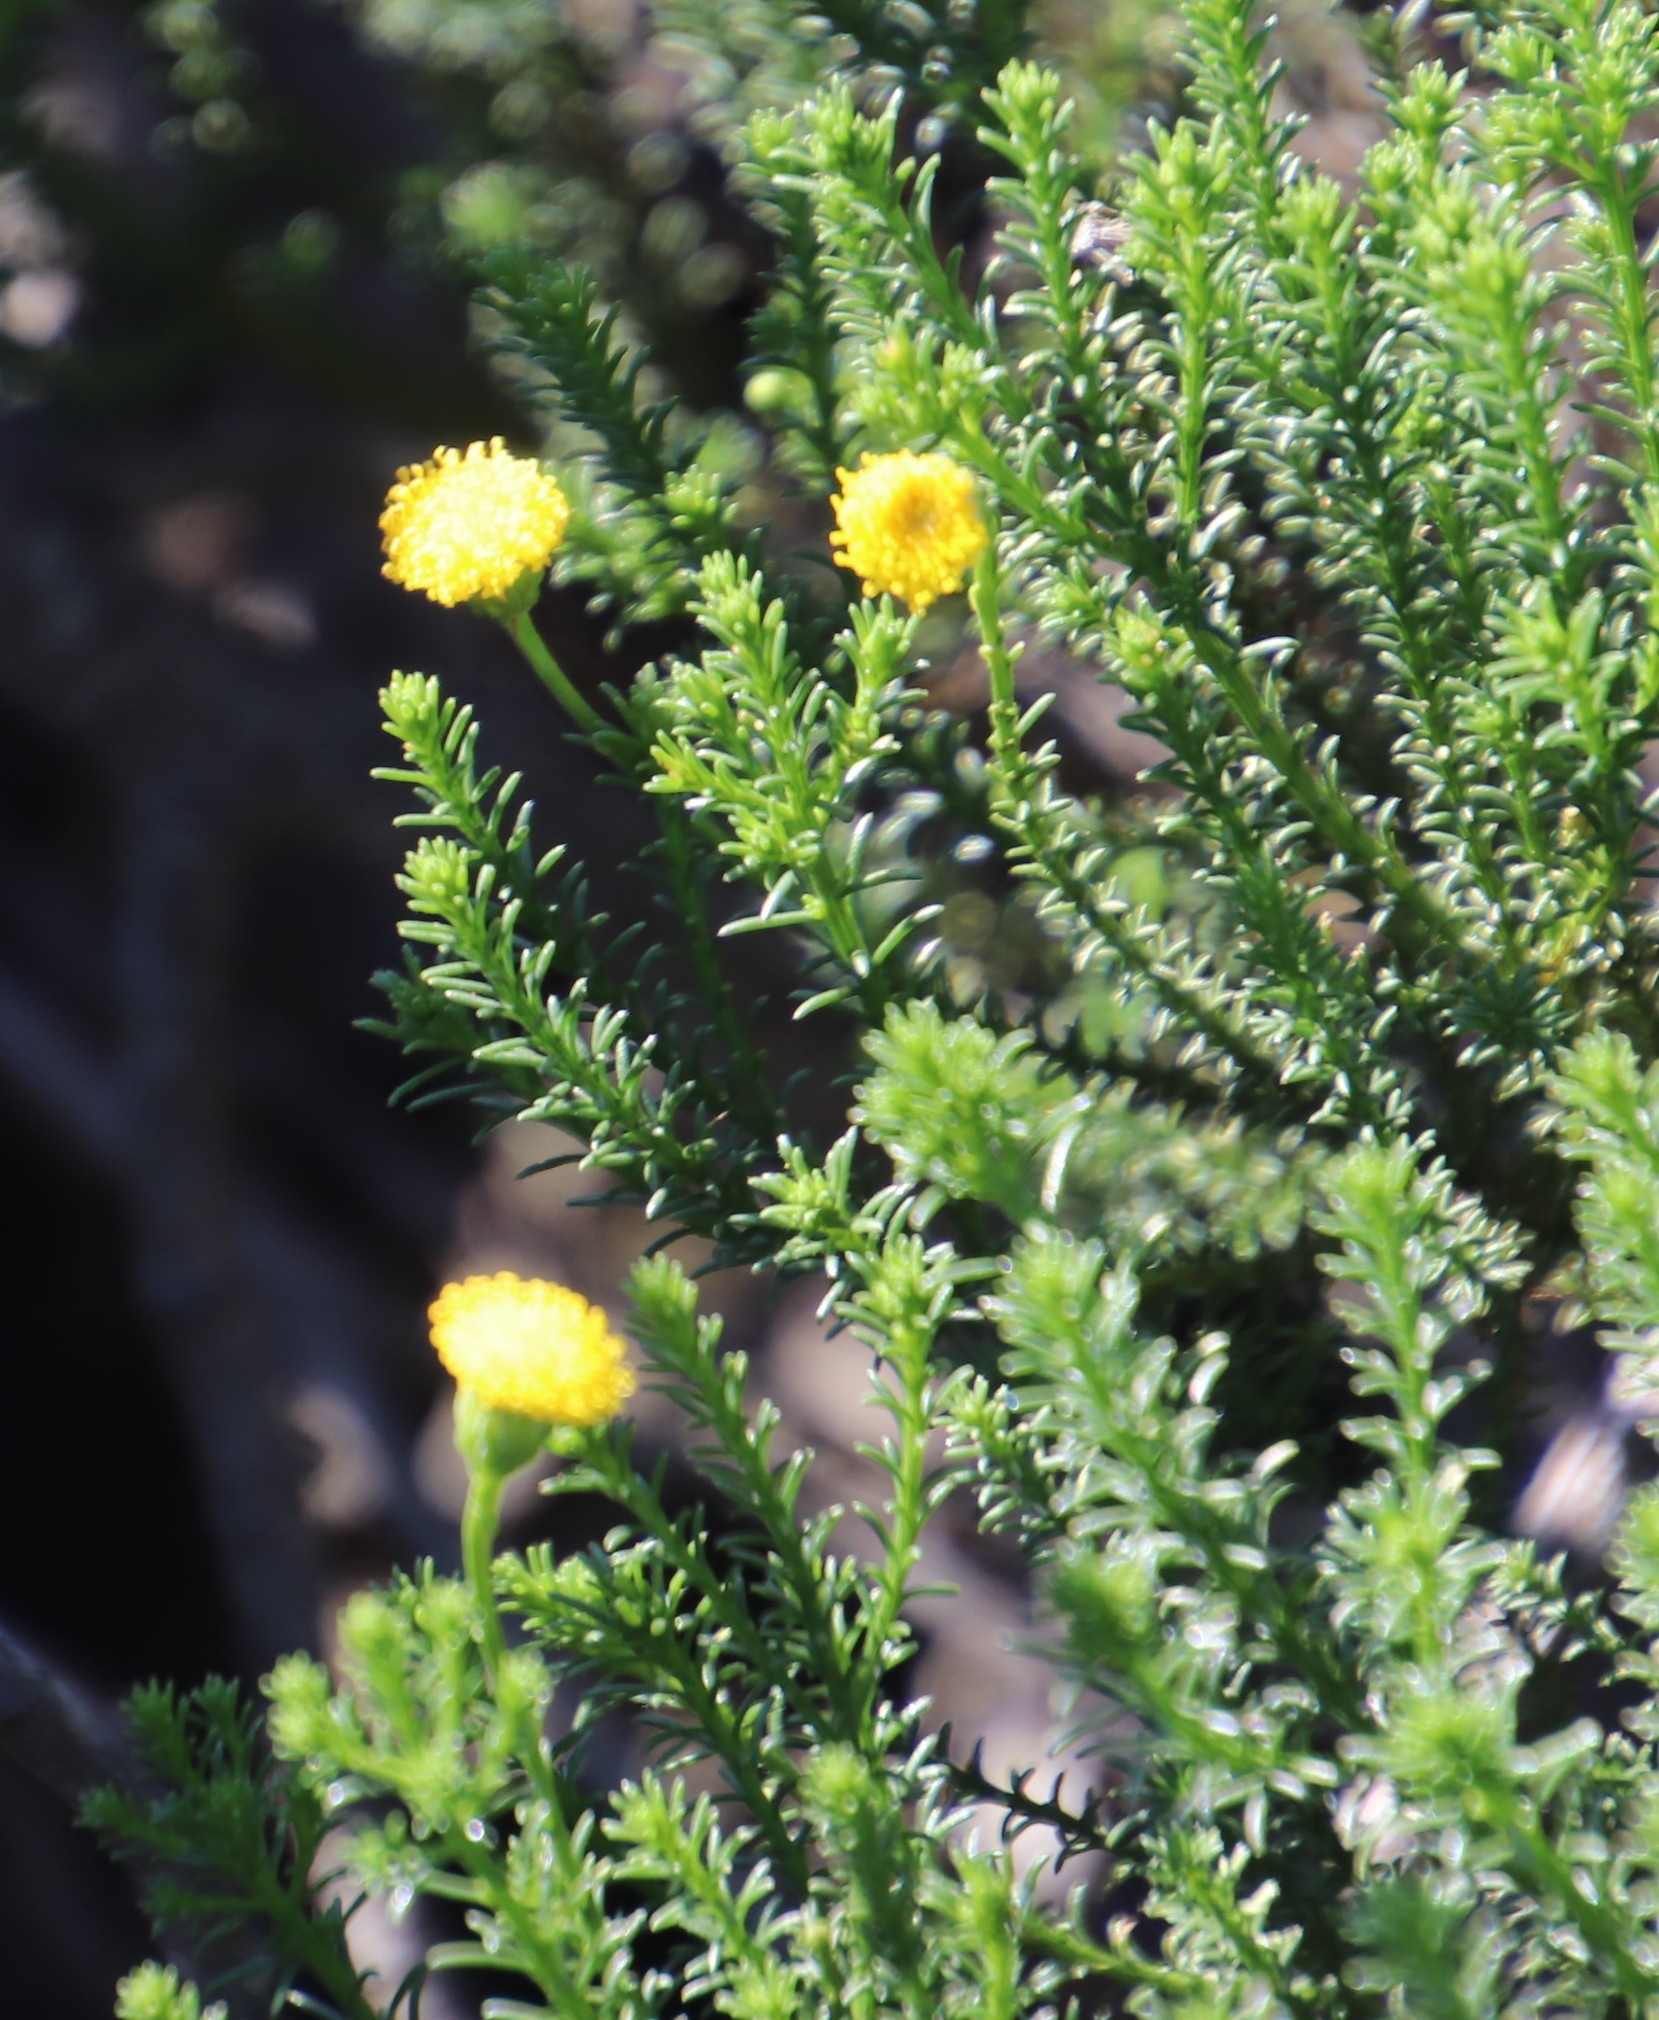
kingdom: Plantae
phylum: Tracheophyta
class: Magnoliopsida
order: Asterales
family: Asteraceae
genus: Chrysocoma
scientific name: Chrysocoma cernua
